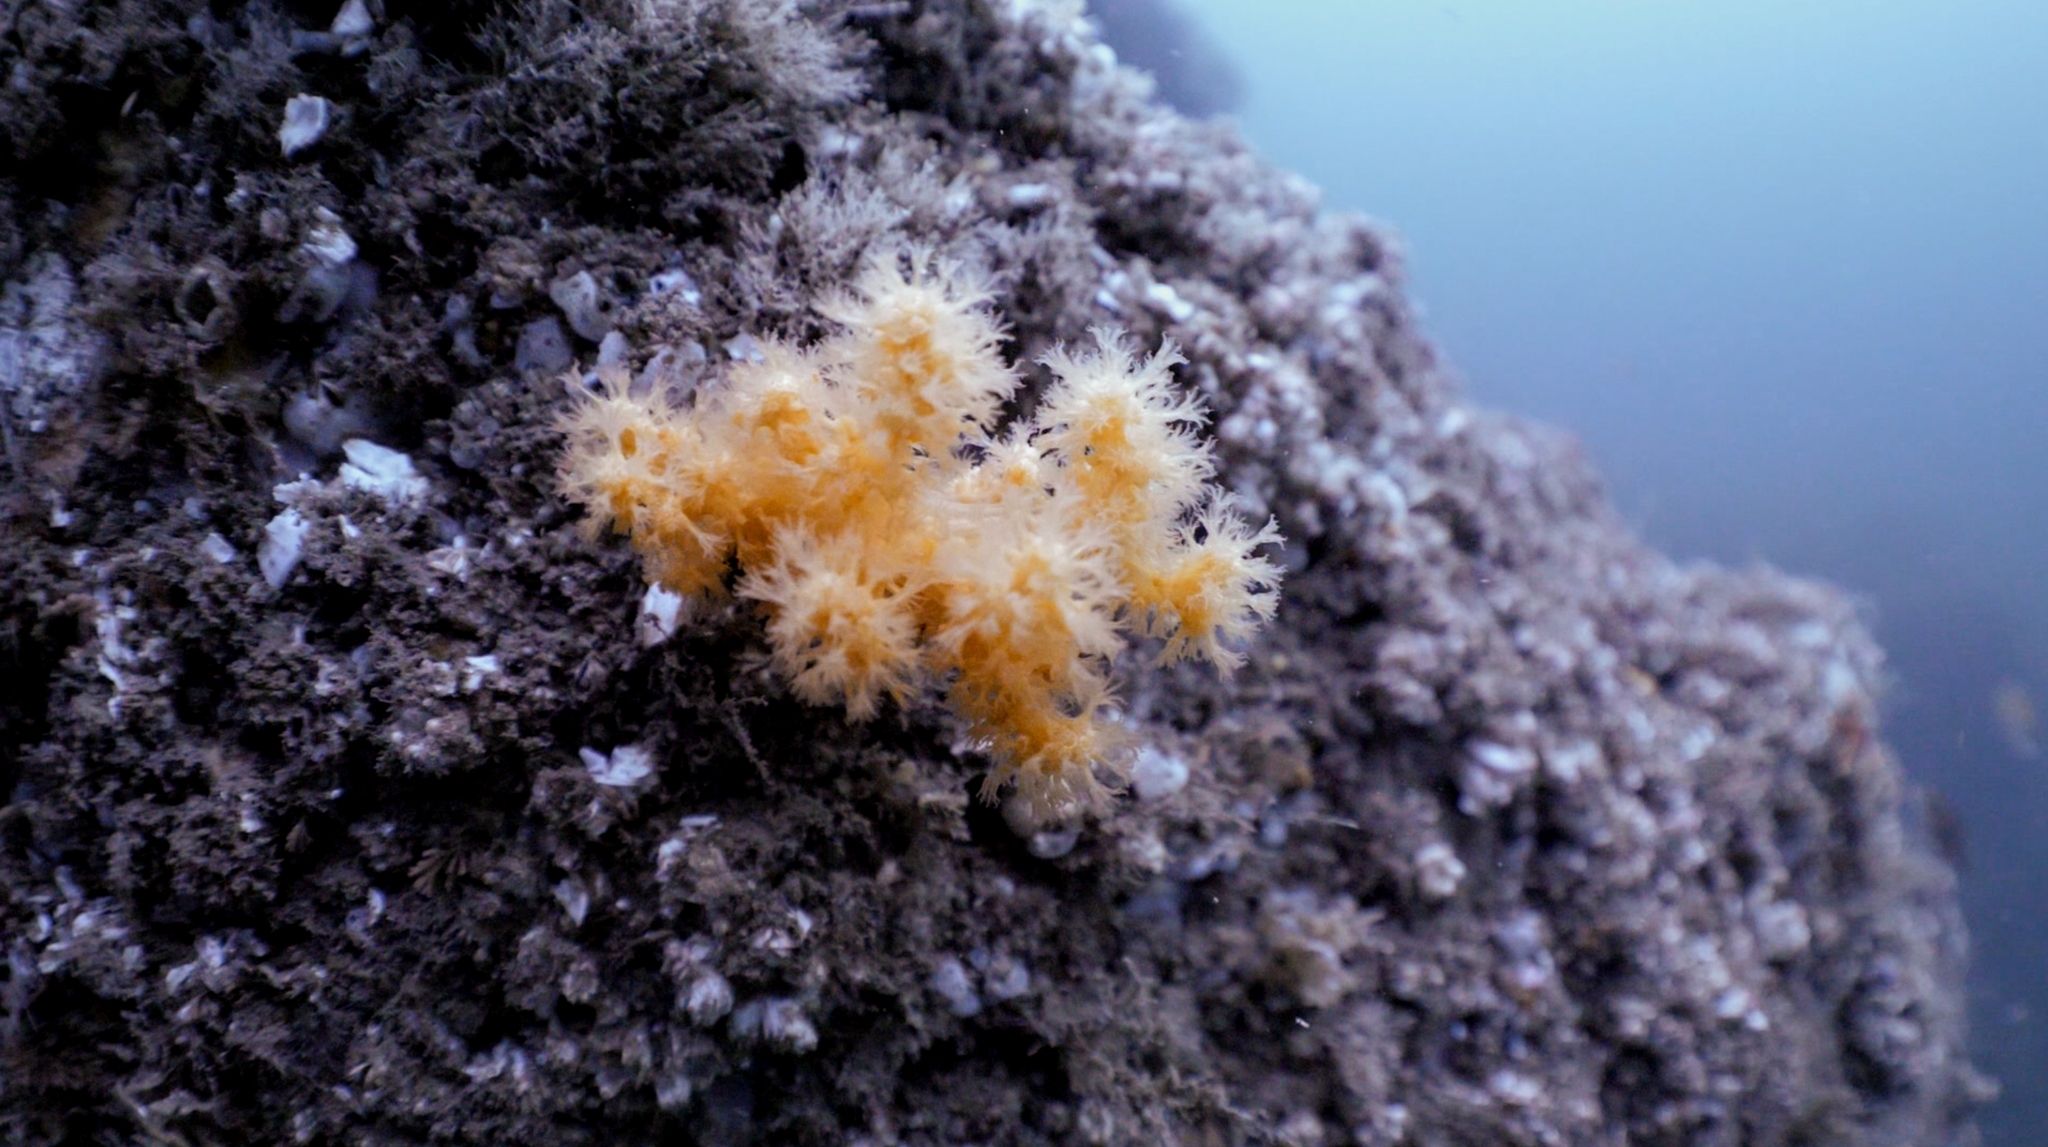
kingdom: Animalia
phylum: Cnidaria
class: Anthozoa
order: Malacalcyonacea
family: Alcyoniidae
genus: Gersemia
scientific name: Gersemia rubiformis
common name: Sea strawberry
